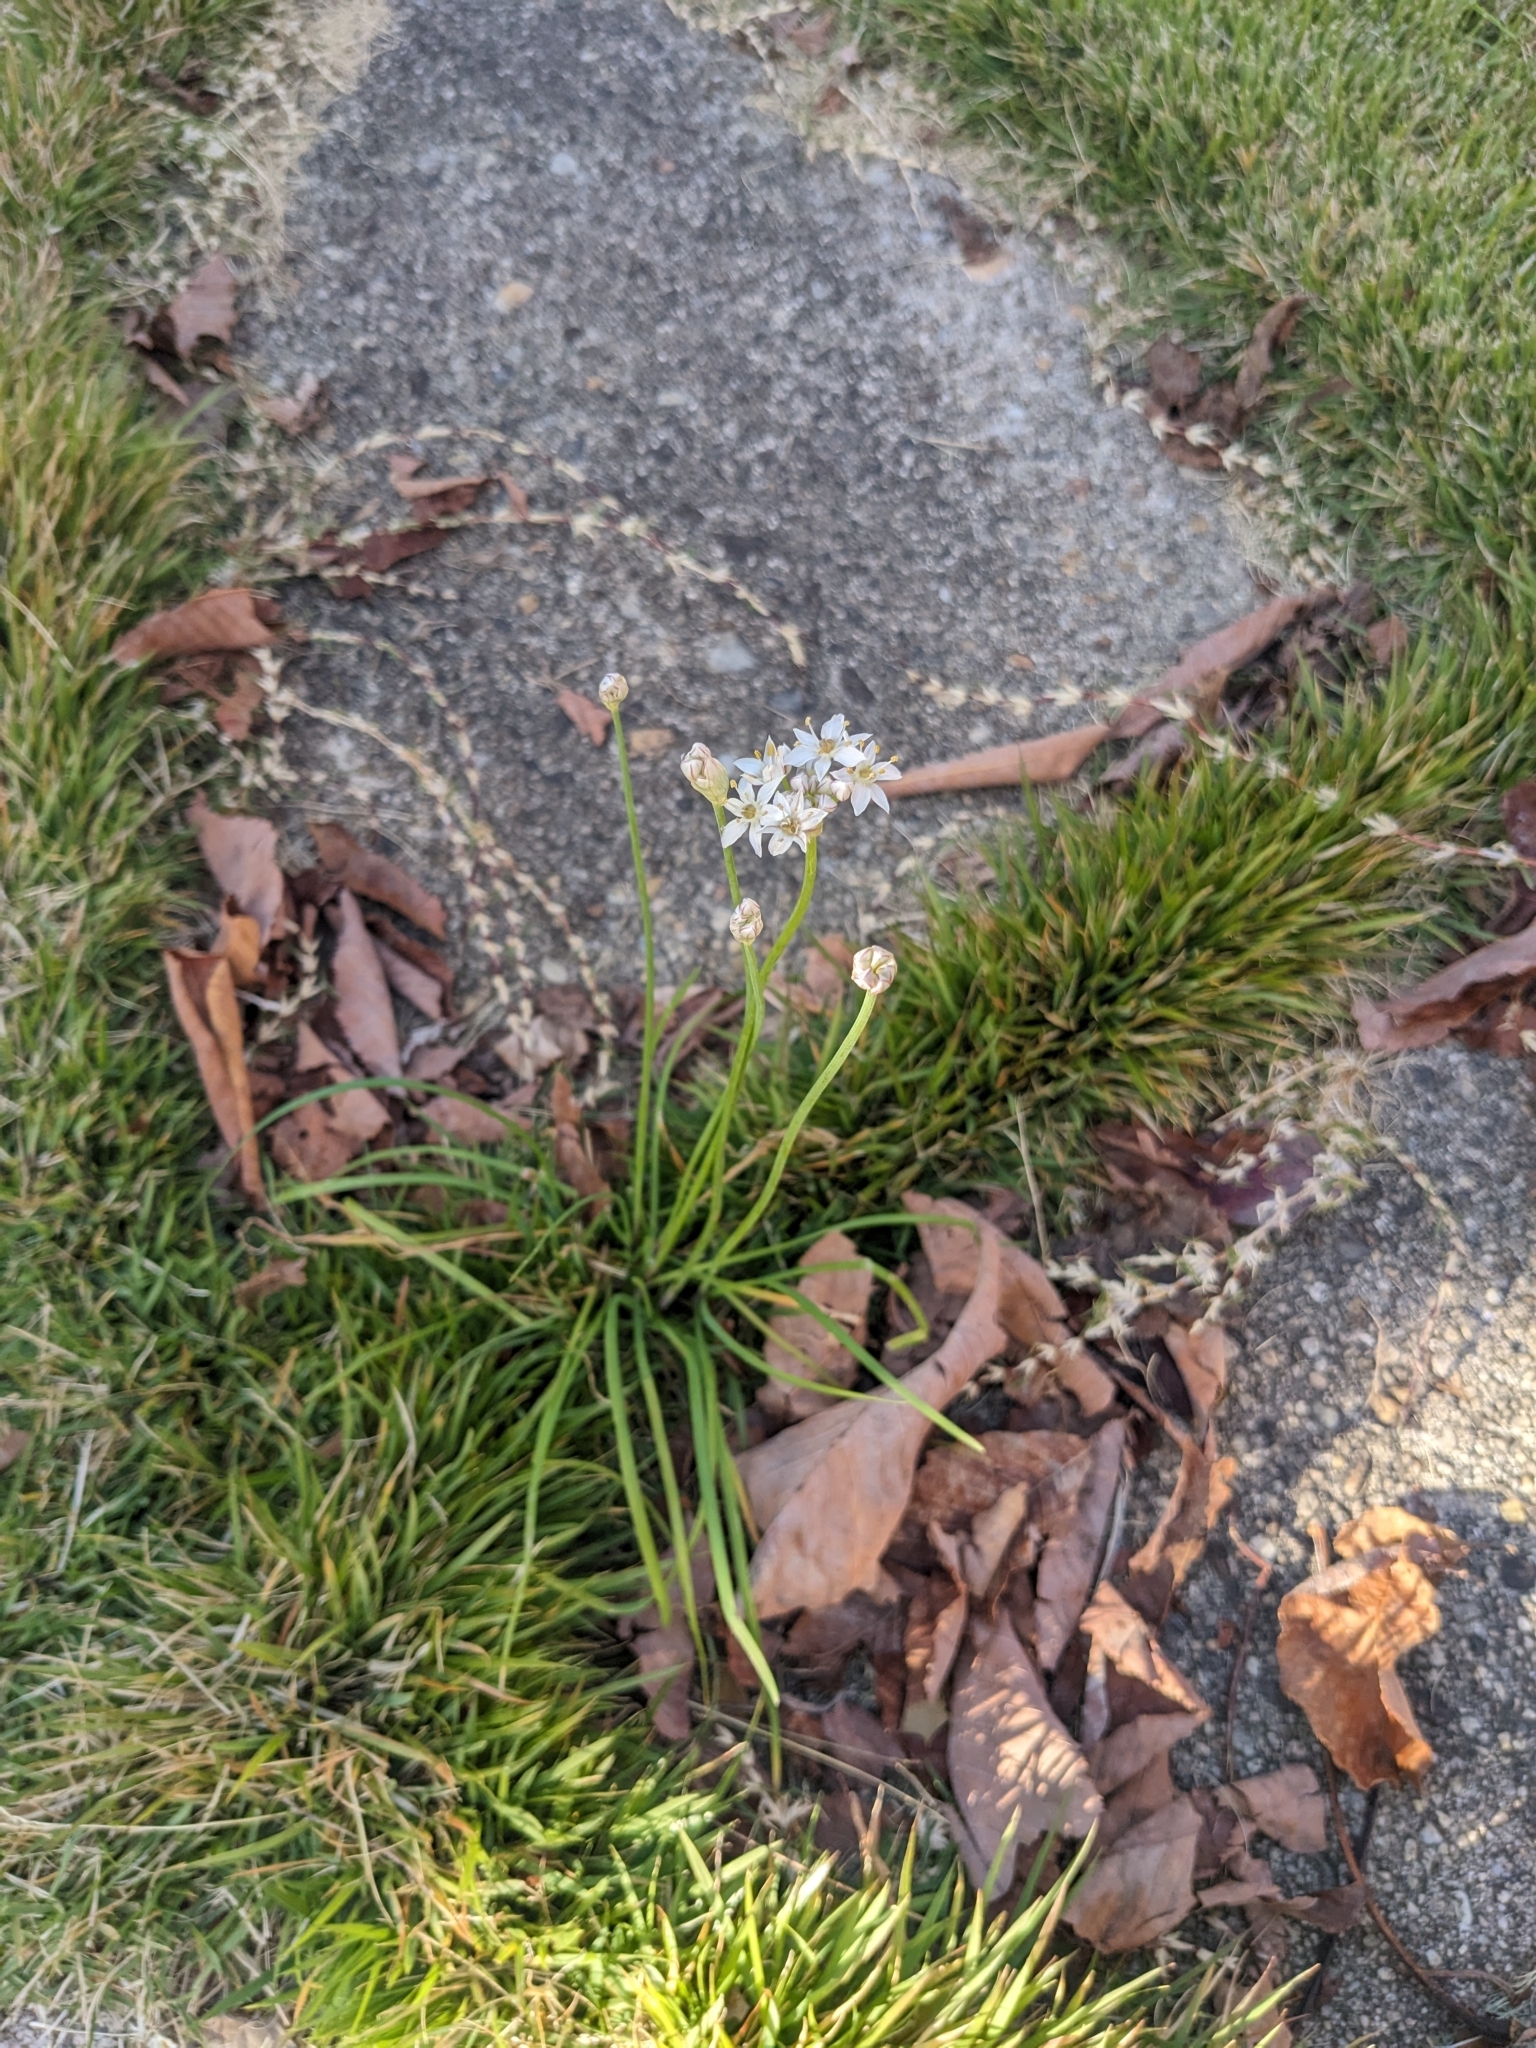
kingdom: Plantae
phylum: Tracheophyta
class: Liliopsida
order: Asparagales
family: Amaryllidaceae
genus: Allium
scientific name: Allium tuberosum
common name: Chinese chives
